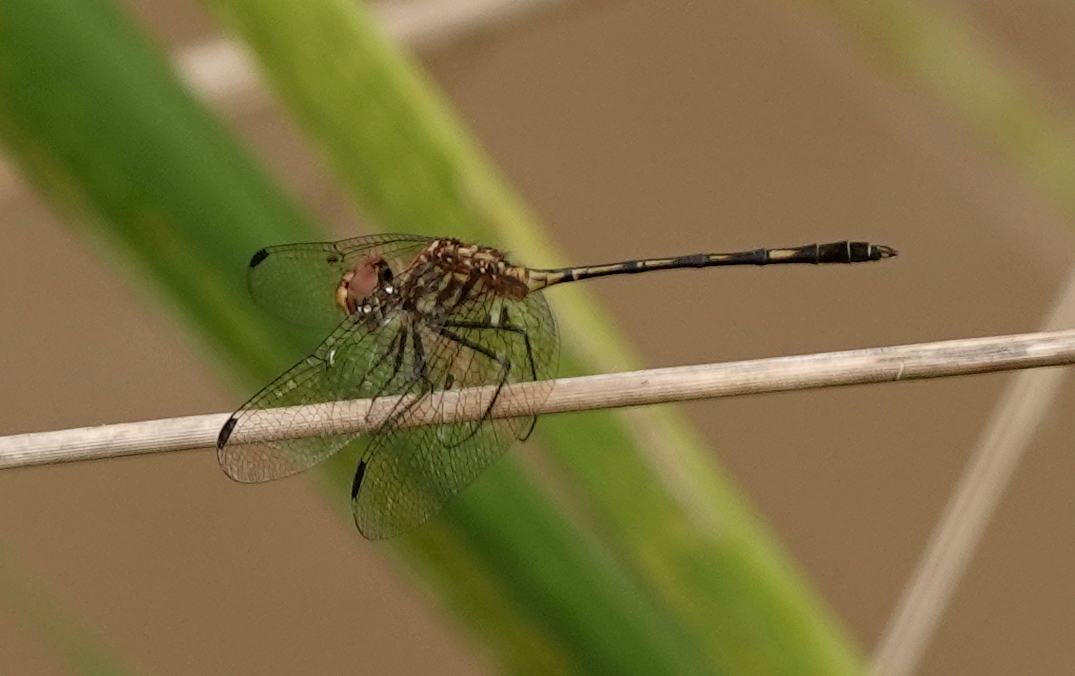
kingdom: Animalia
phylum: Arthropoda
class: Insecta
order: Odonata
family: Libellulidae
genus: Dythemis
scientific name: Dythemis sterilis
